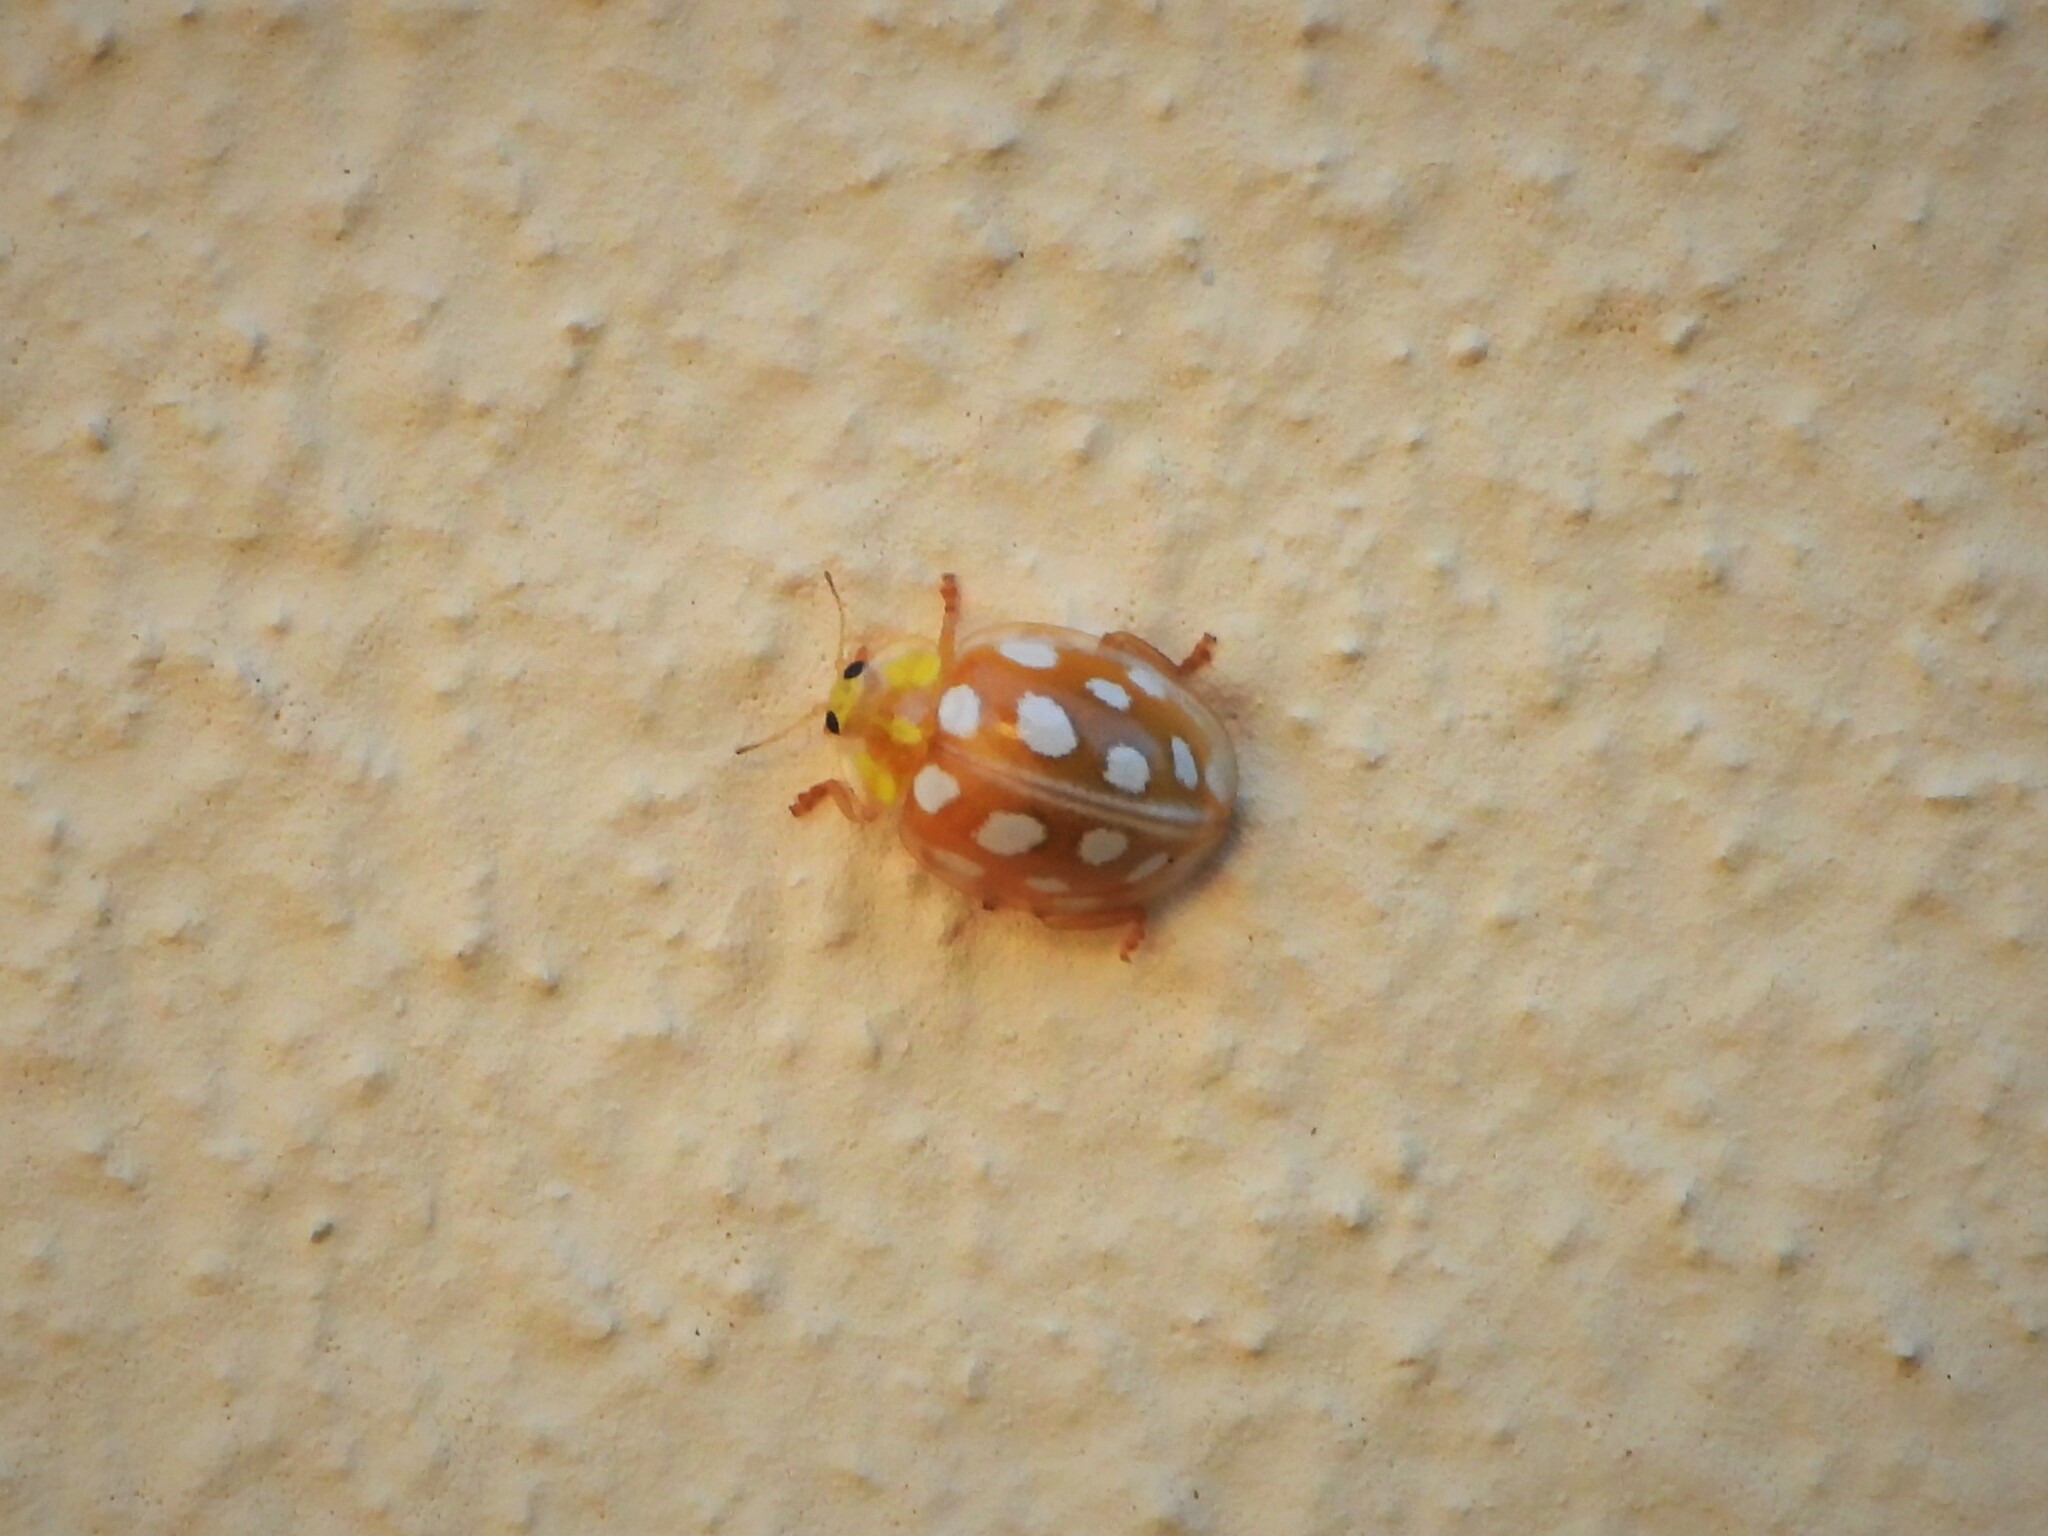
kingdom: Animalia
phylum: Arthropoda
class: Insecta
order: Coleoptera
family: Coccinellidae
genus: Halyzia
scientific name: Halyzia sedecimguttata
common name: Orange ladybird
